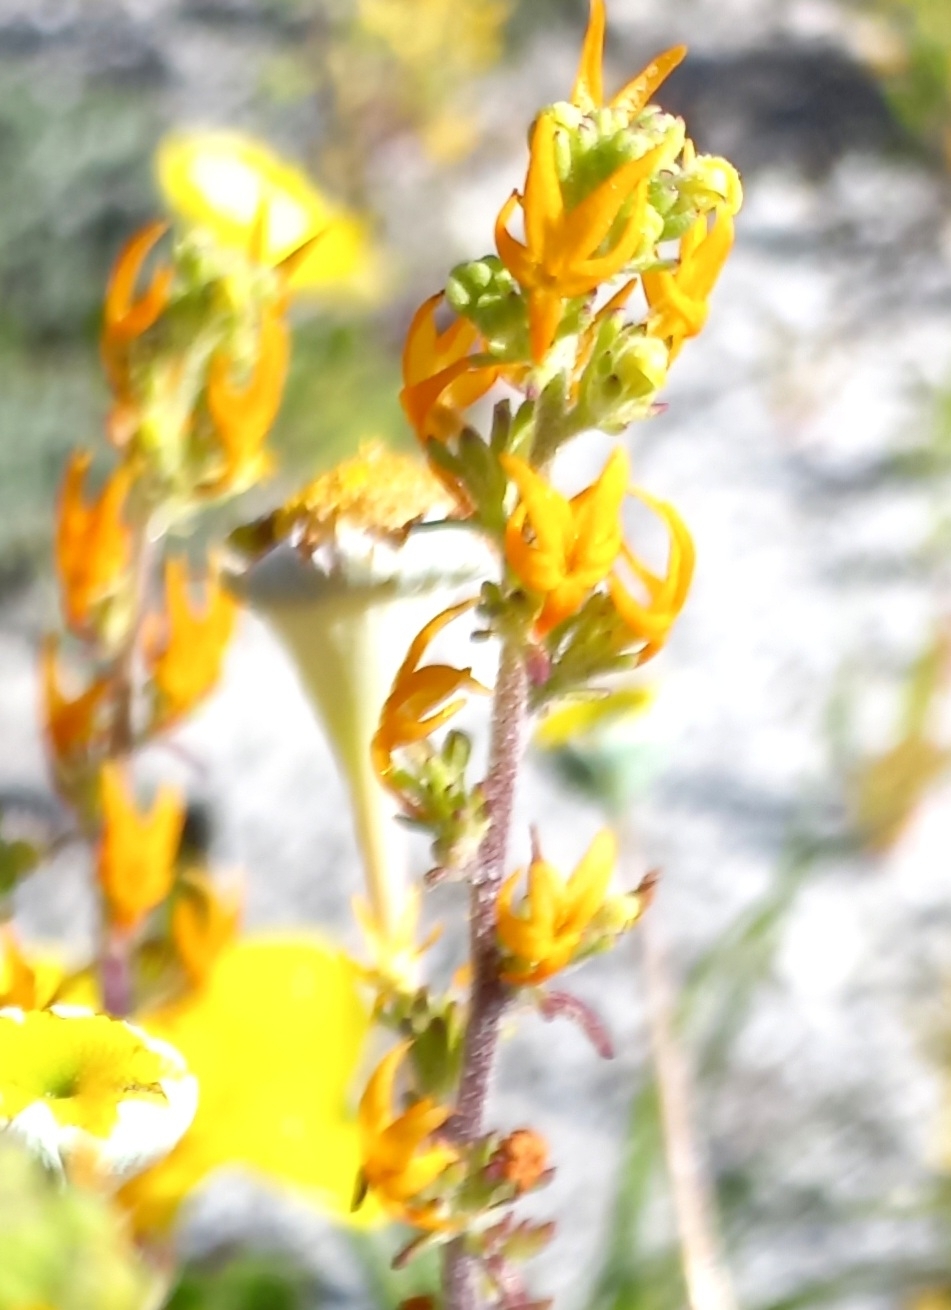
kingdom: Plantae
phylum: Tracheophyta
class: Magnoliopsida
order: Lamiales
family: Scrophulariaceae
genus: Manulea
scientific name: Manulea cheiranthus
